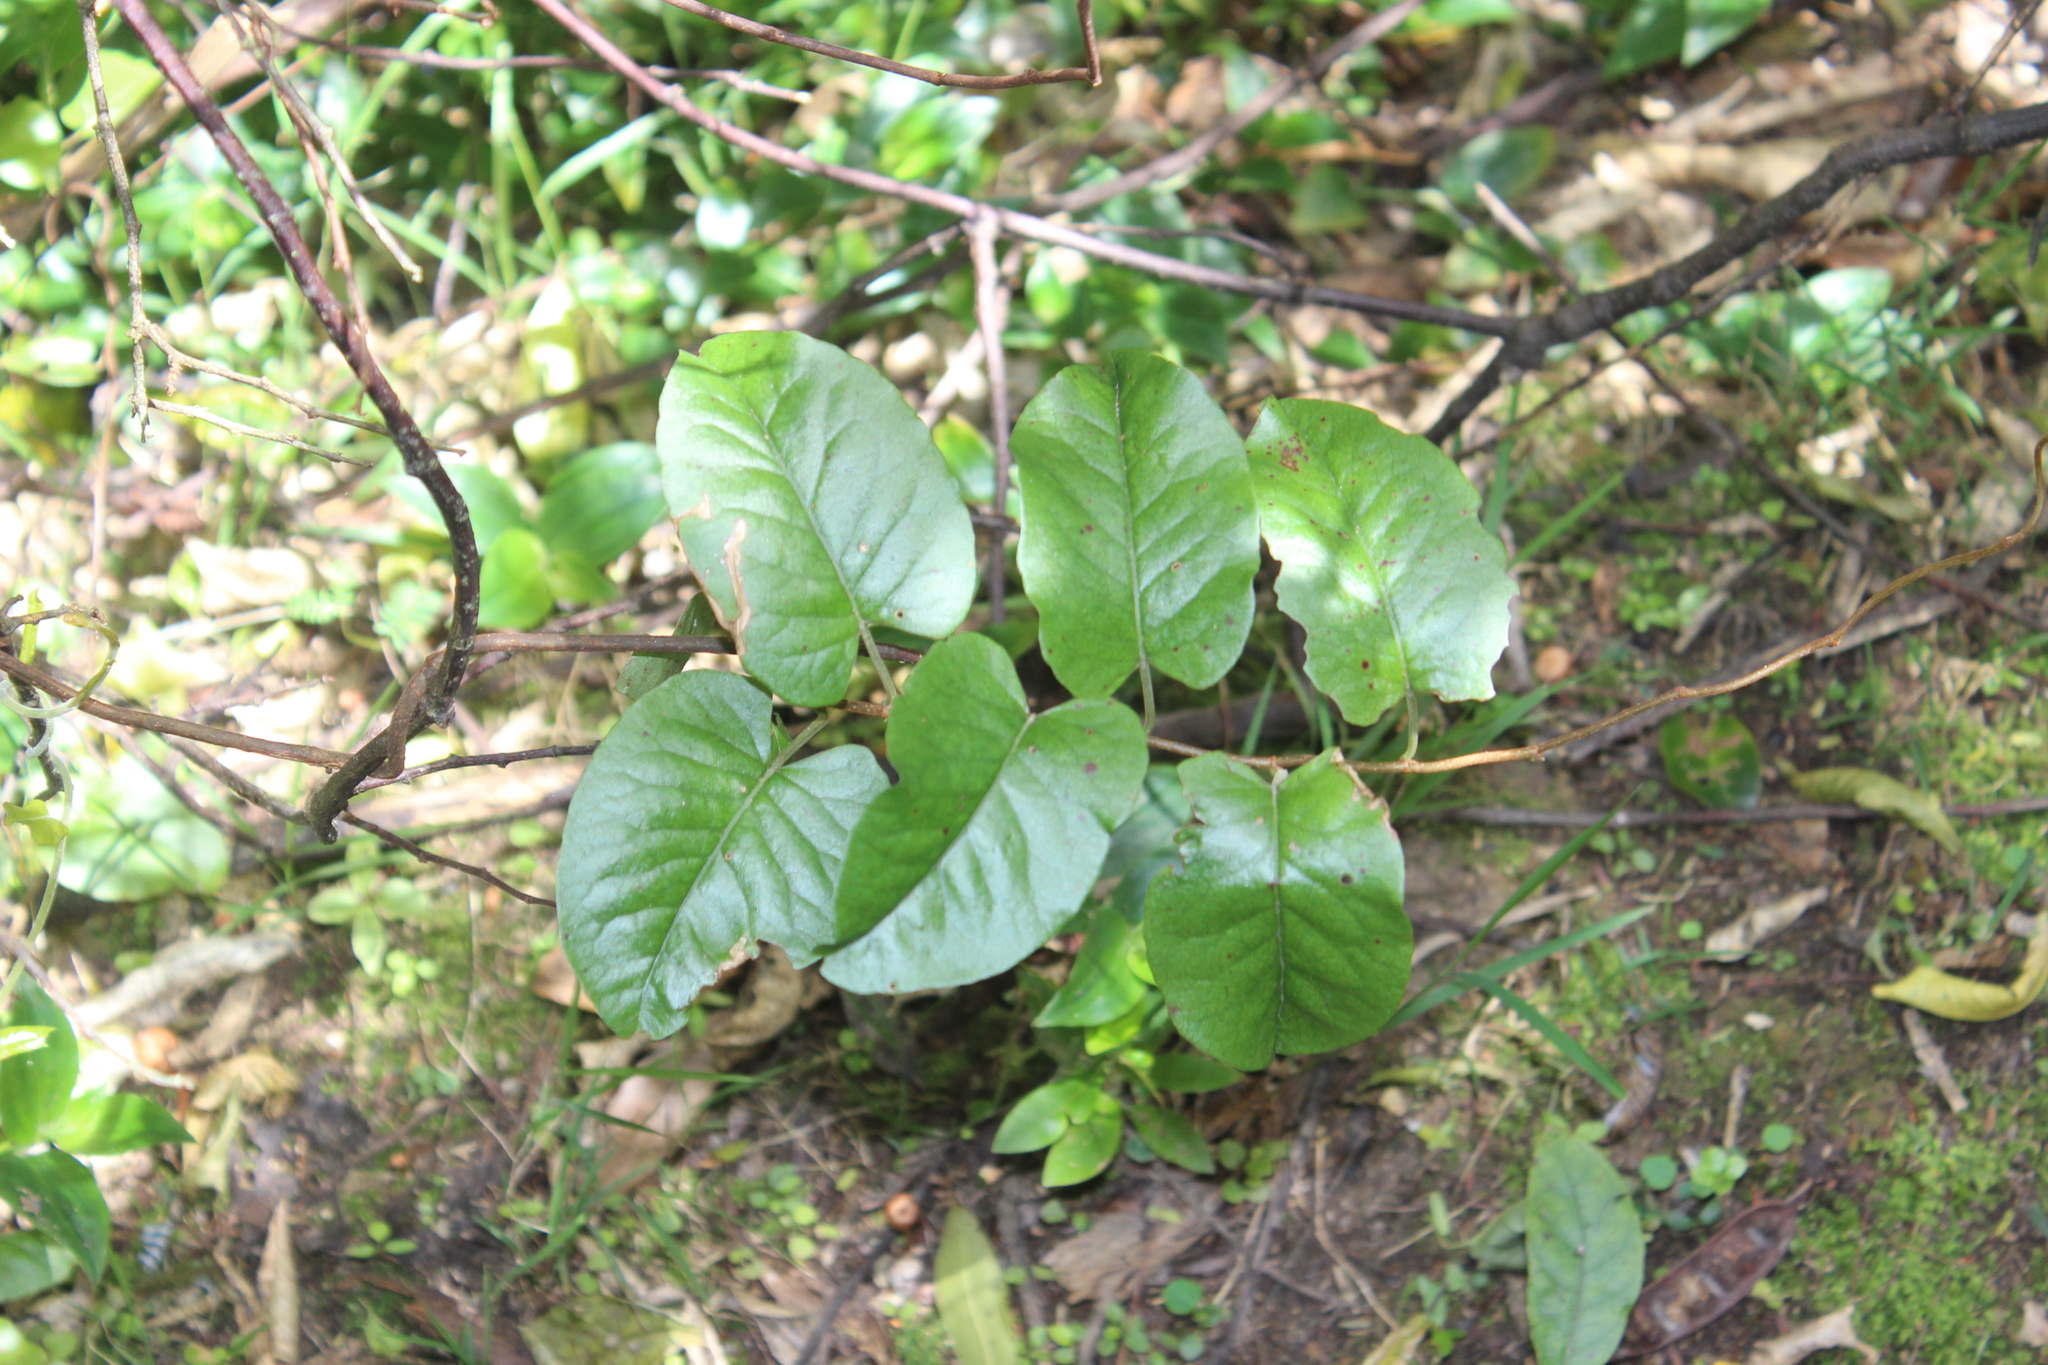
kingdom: Plantae
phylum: Tracheophyta
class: Magnoliopsida
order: Caryophyllales
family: Polygonaceae
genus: Muehlenbeckia
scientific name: Muehlenbeckia australis
